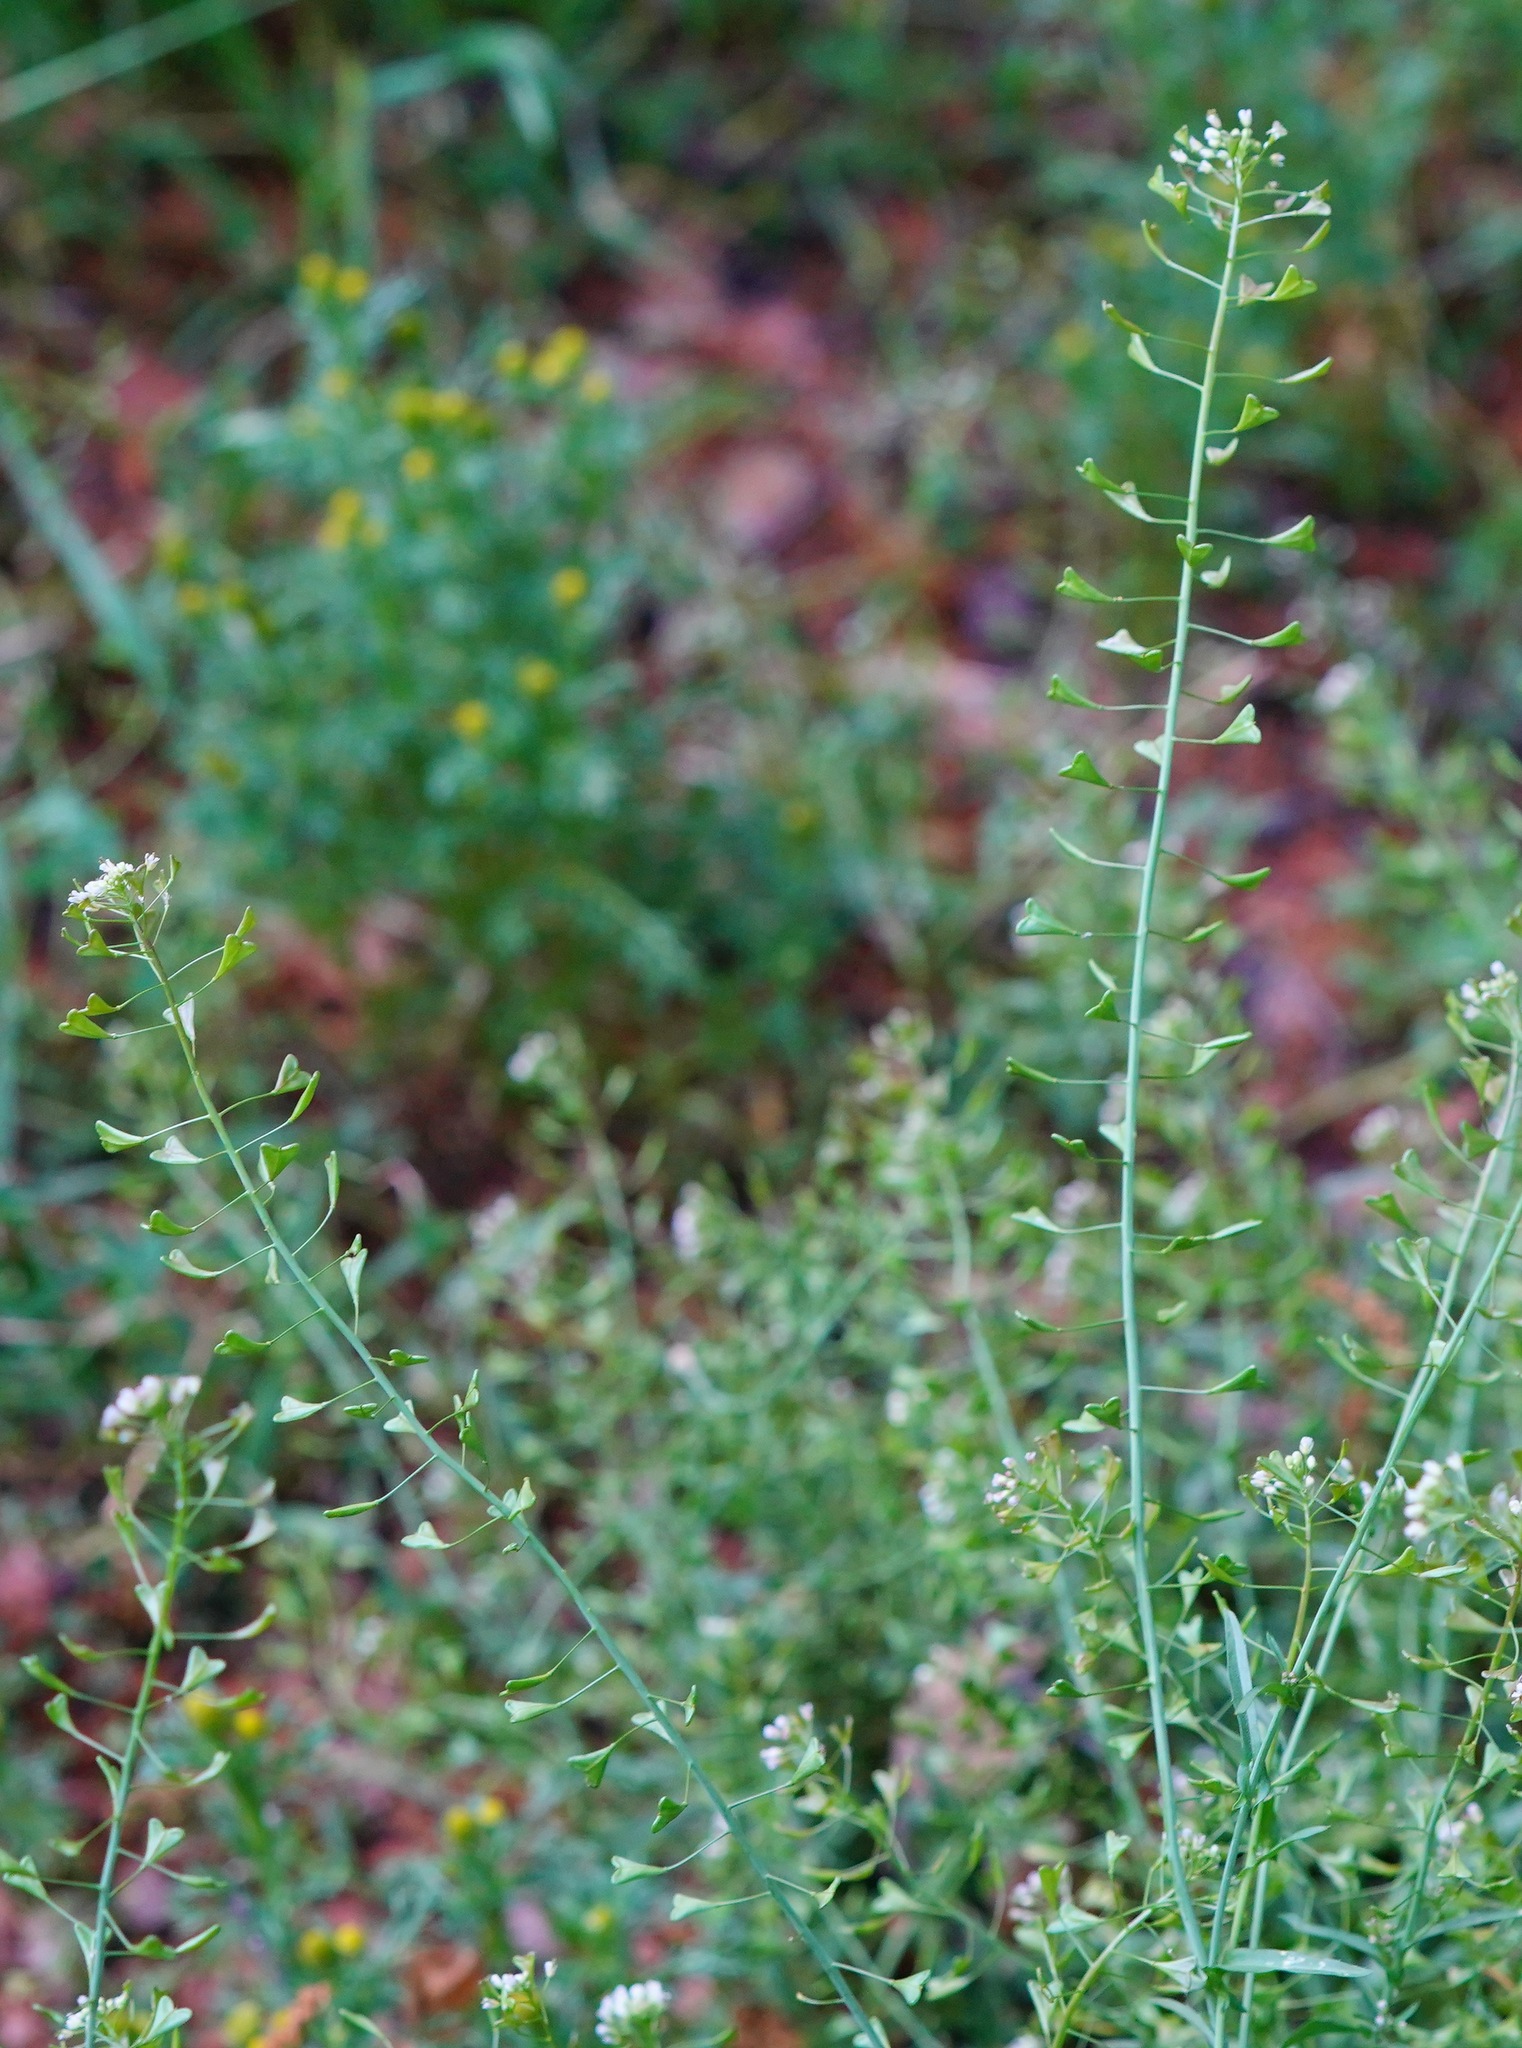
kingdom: Plantae
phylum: Tracheophyta
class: Magnoliopsida
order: Brassicales
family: Brassicaceae
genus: Capsella
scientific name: Capsella bursa-pastoris
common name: Shepherd's purse
